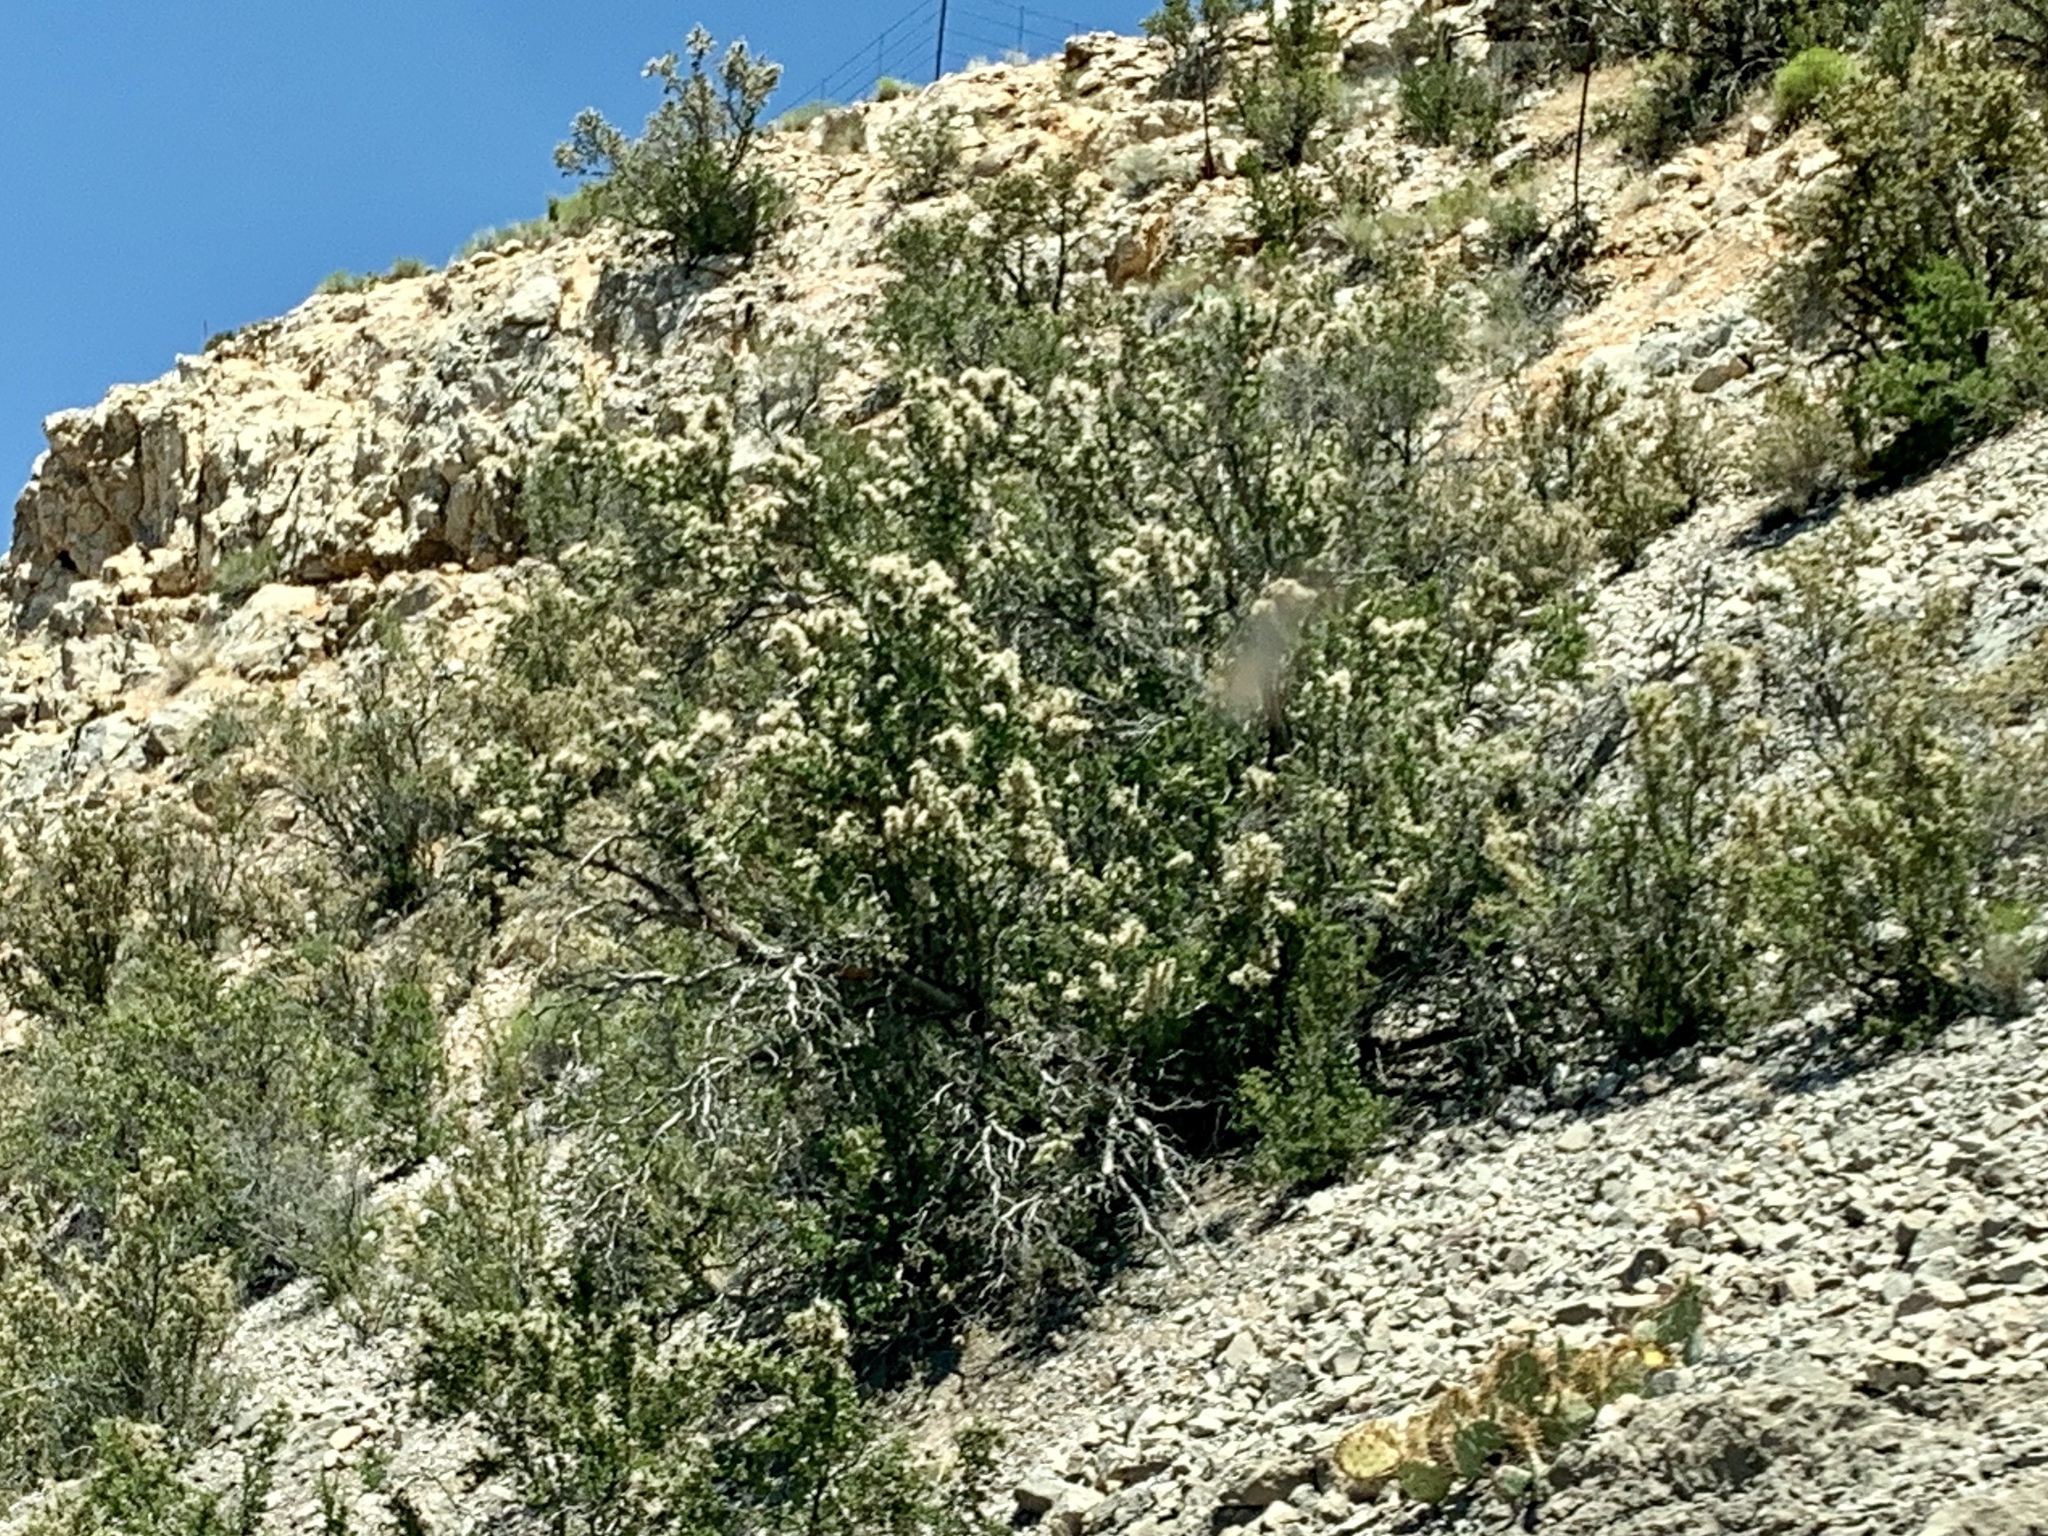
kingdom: Plantae
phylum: Tracheophyta
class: Magnoliopsida
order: Rosales
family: Rosaceae
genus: Purshia
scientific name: Purshia stansburiana
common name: Stansbury's cliffrose
